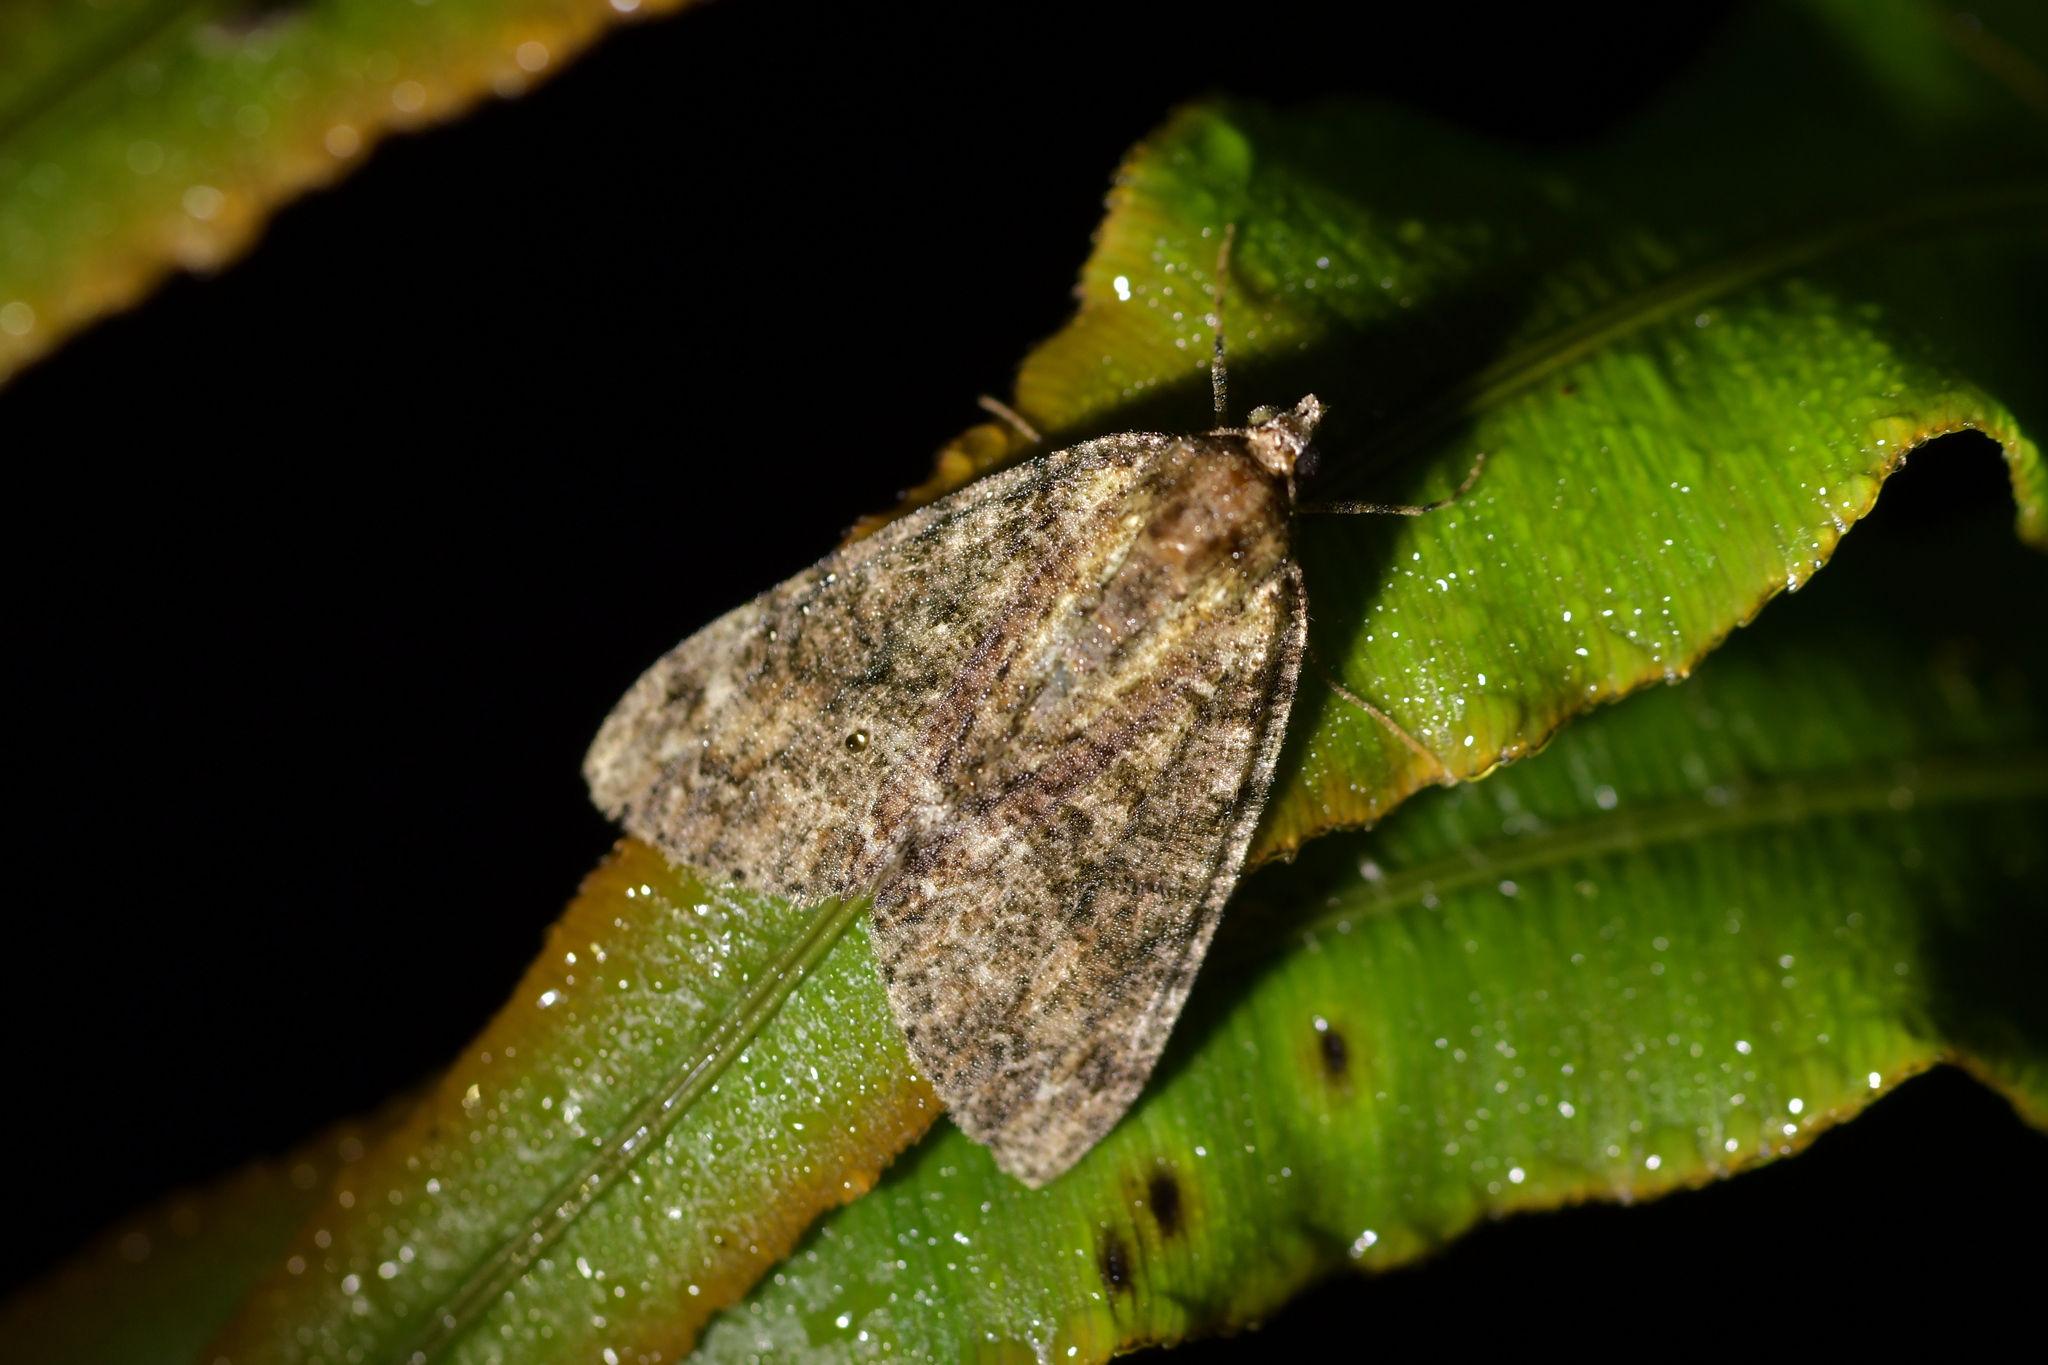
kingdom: Animalia
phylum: Arthropoda
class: Insecta
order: Lepidoptera
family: Geometridae
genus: Pseudocoremia
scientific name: Pseudocoremia suavis
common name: Common forest looper
